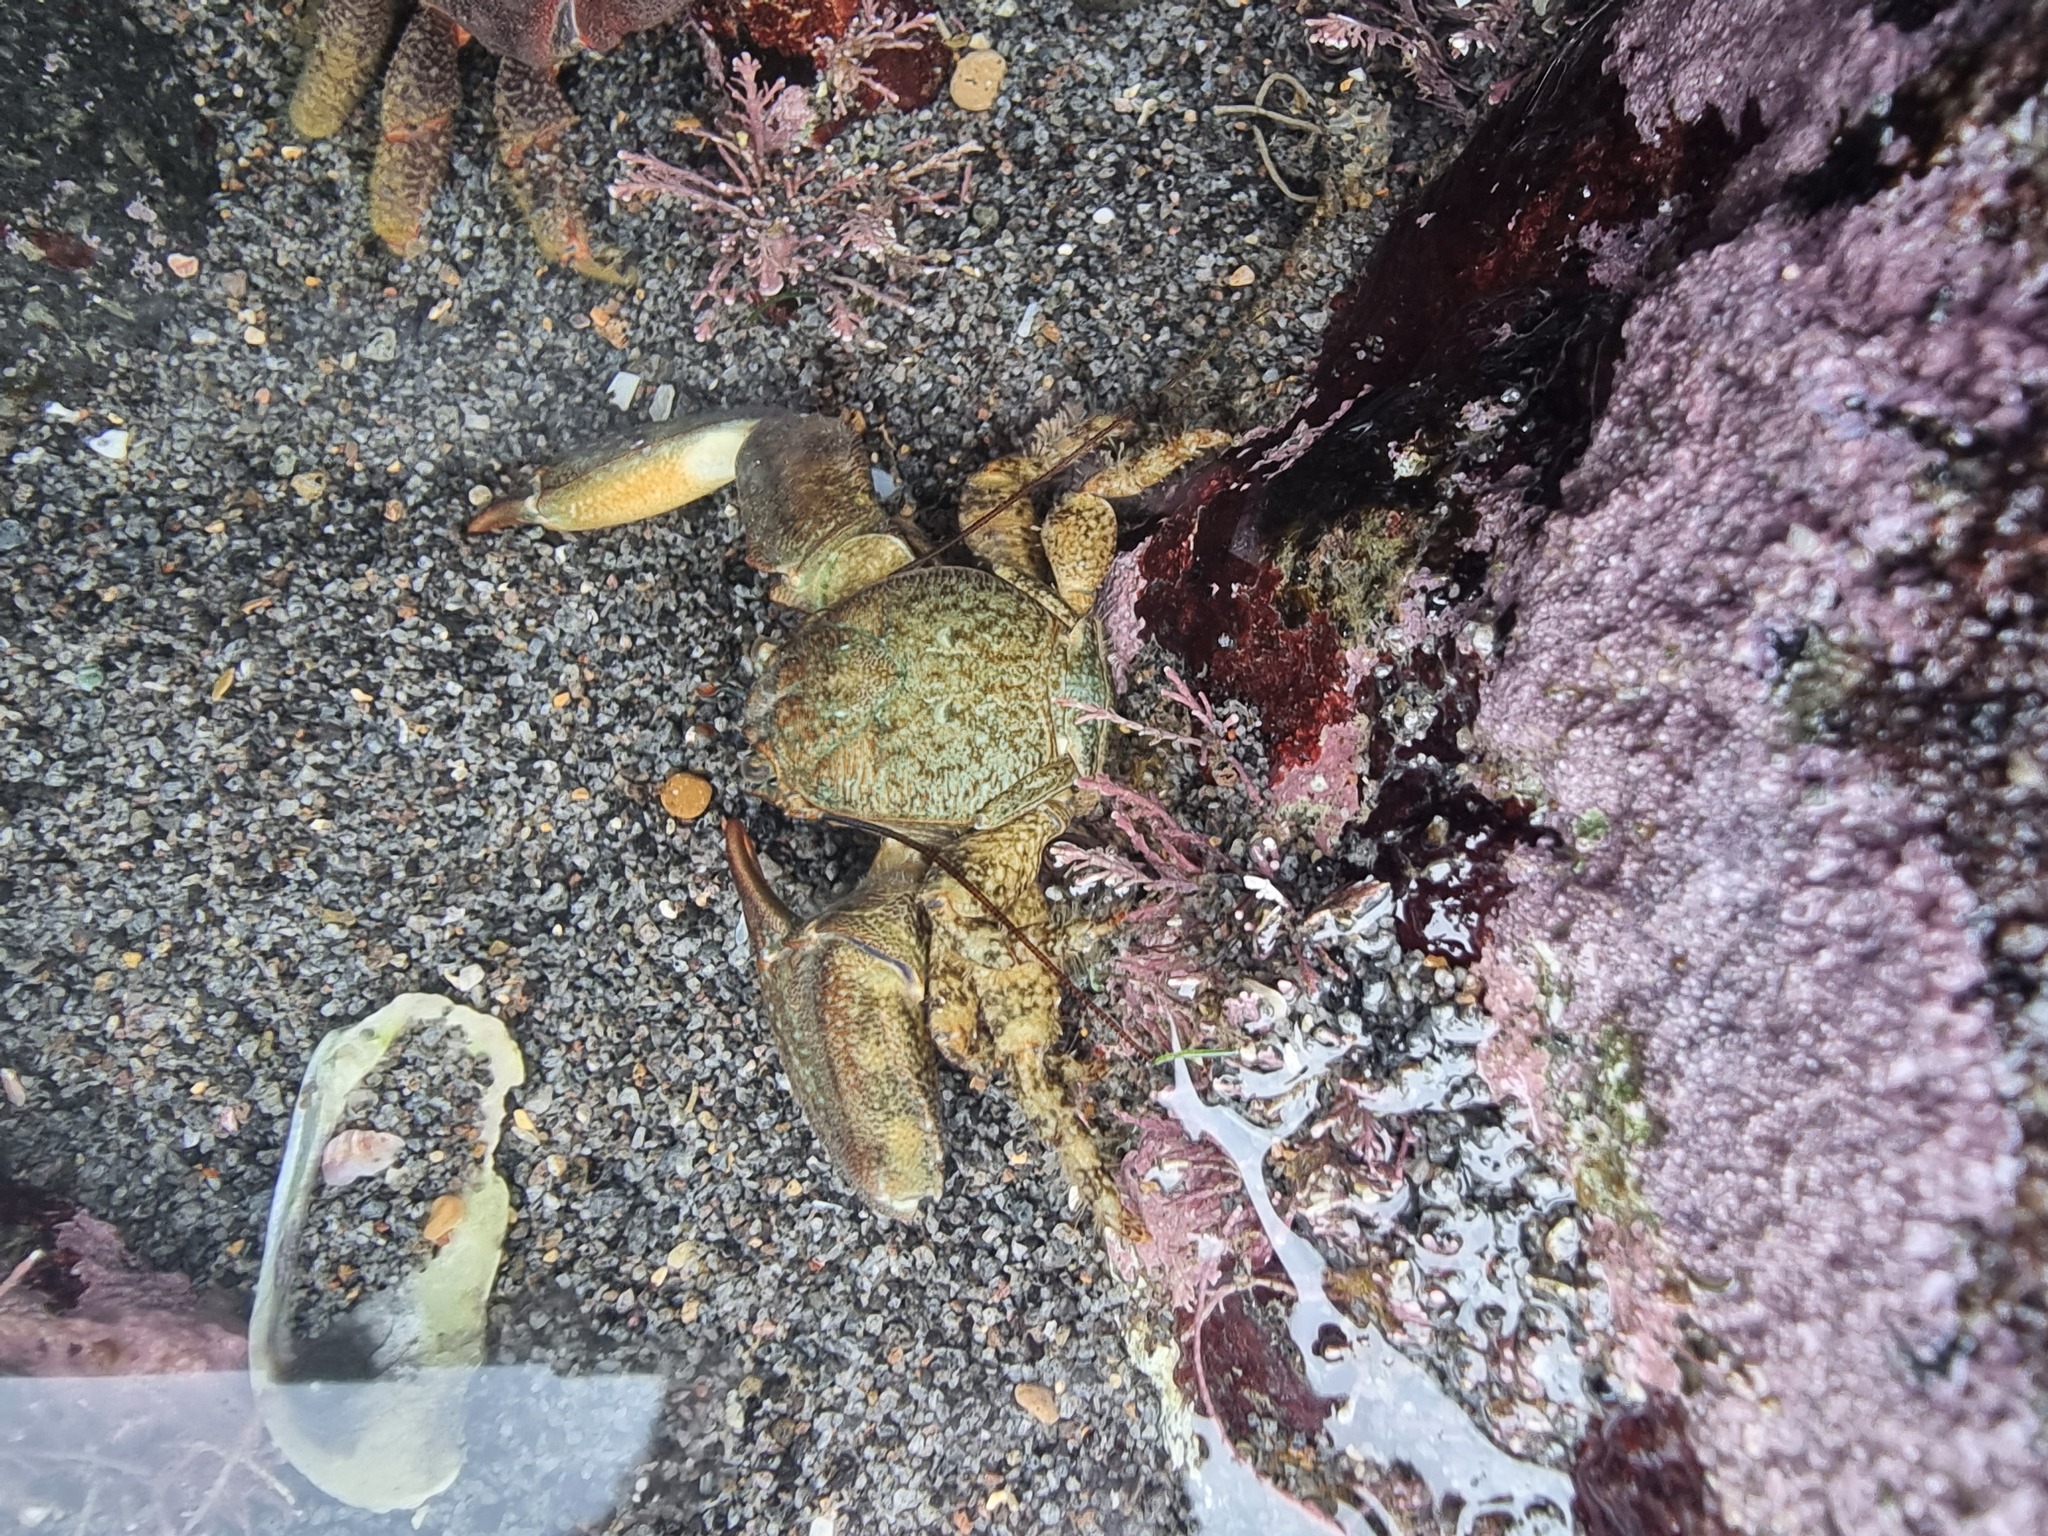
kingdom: Animalia
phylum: Arthropoda
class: Malacostraca
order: Decapoda
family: Porcellanidae
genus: Petrolisthes
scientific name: Petrolisthes elongatus
